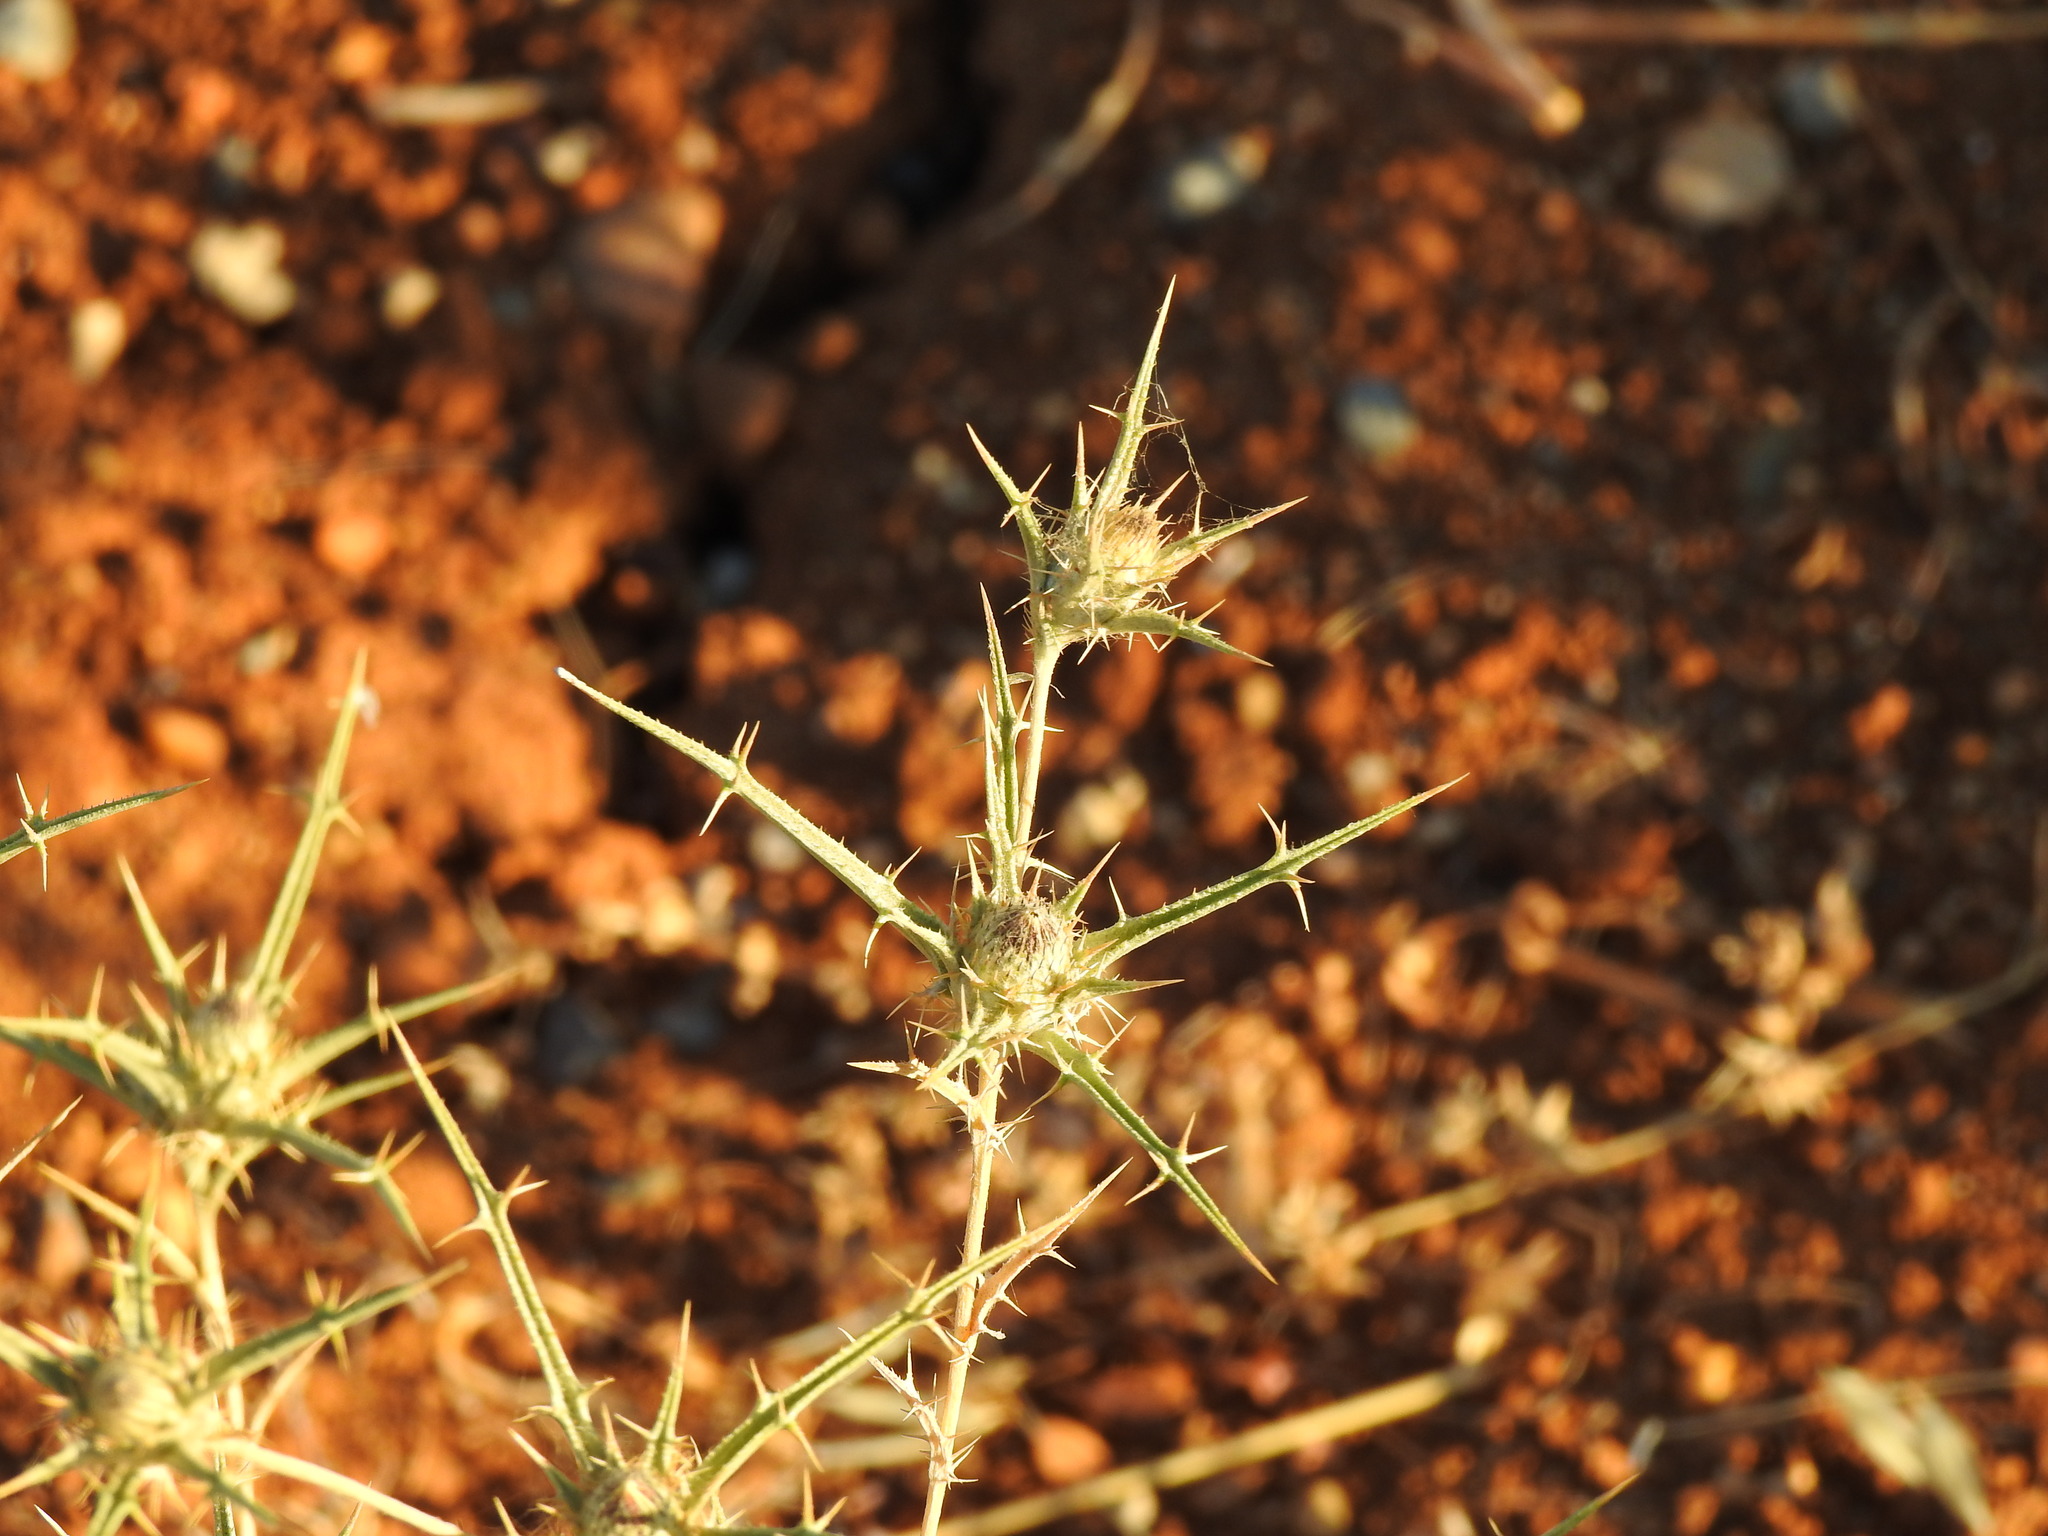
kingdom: Plantae
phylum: Tracheophyta
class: Magnoliopsida
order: Asterales
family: Asteraceae
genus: Carlina
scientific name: Carlina racemosa
